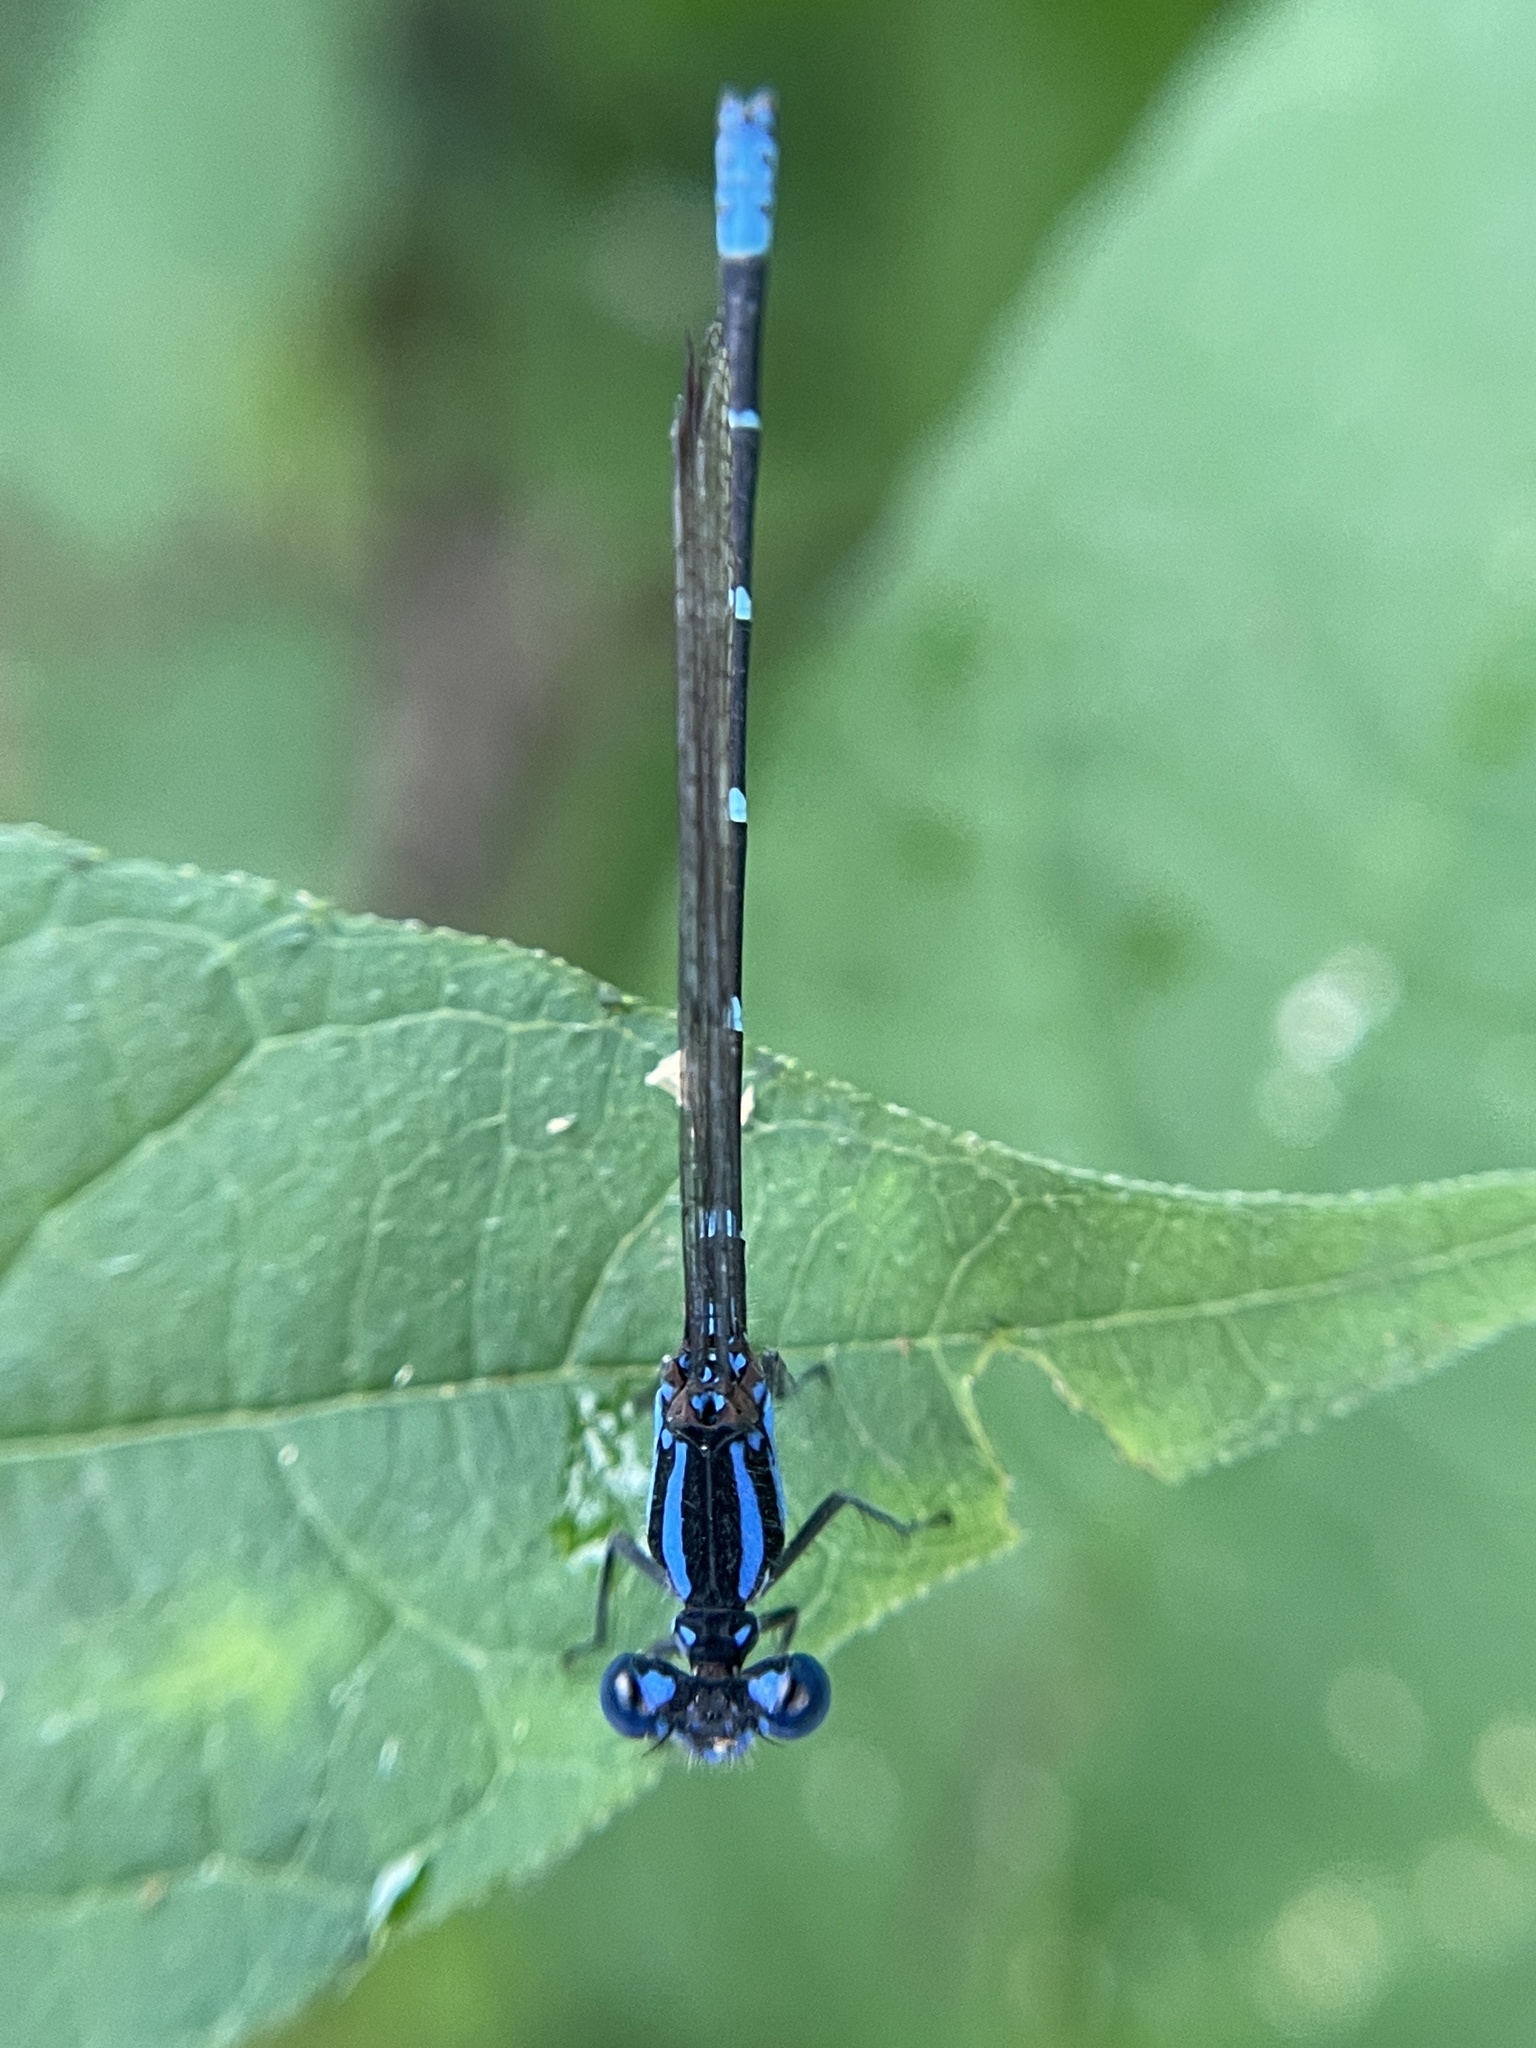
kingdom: Animalia
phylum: Arthropoda
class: Insecta
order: Odonata
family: Coenagrionidae
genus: Argia
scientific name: Argia sedula
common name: Blue-ringed dancer
